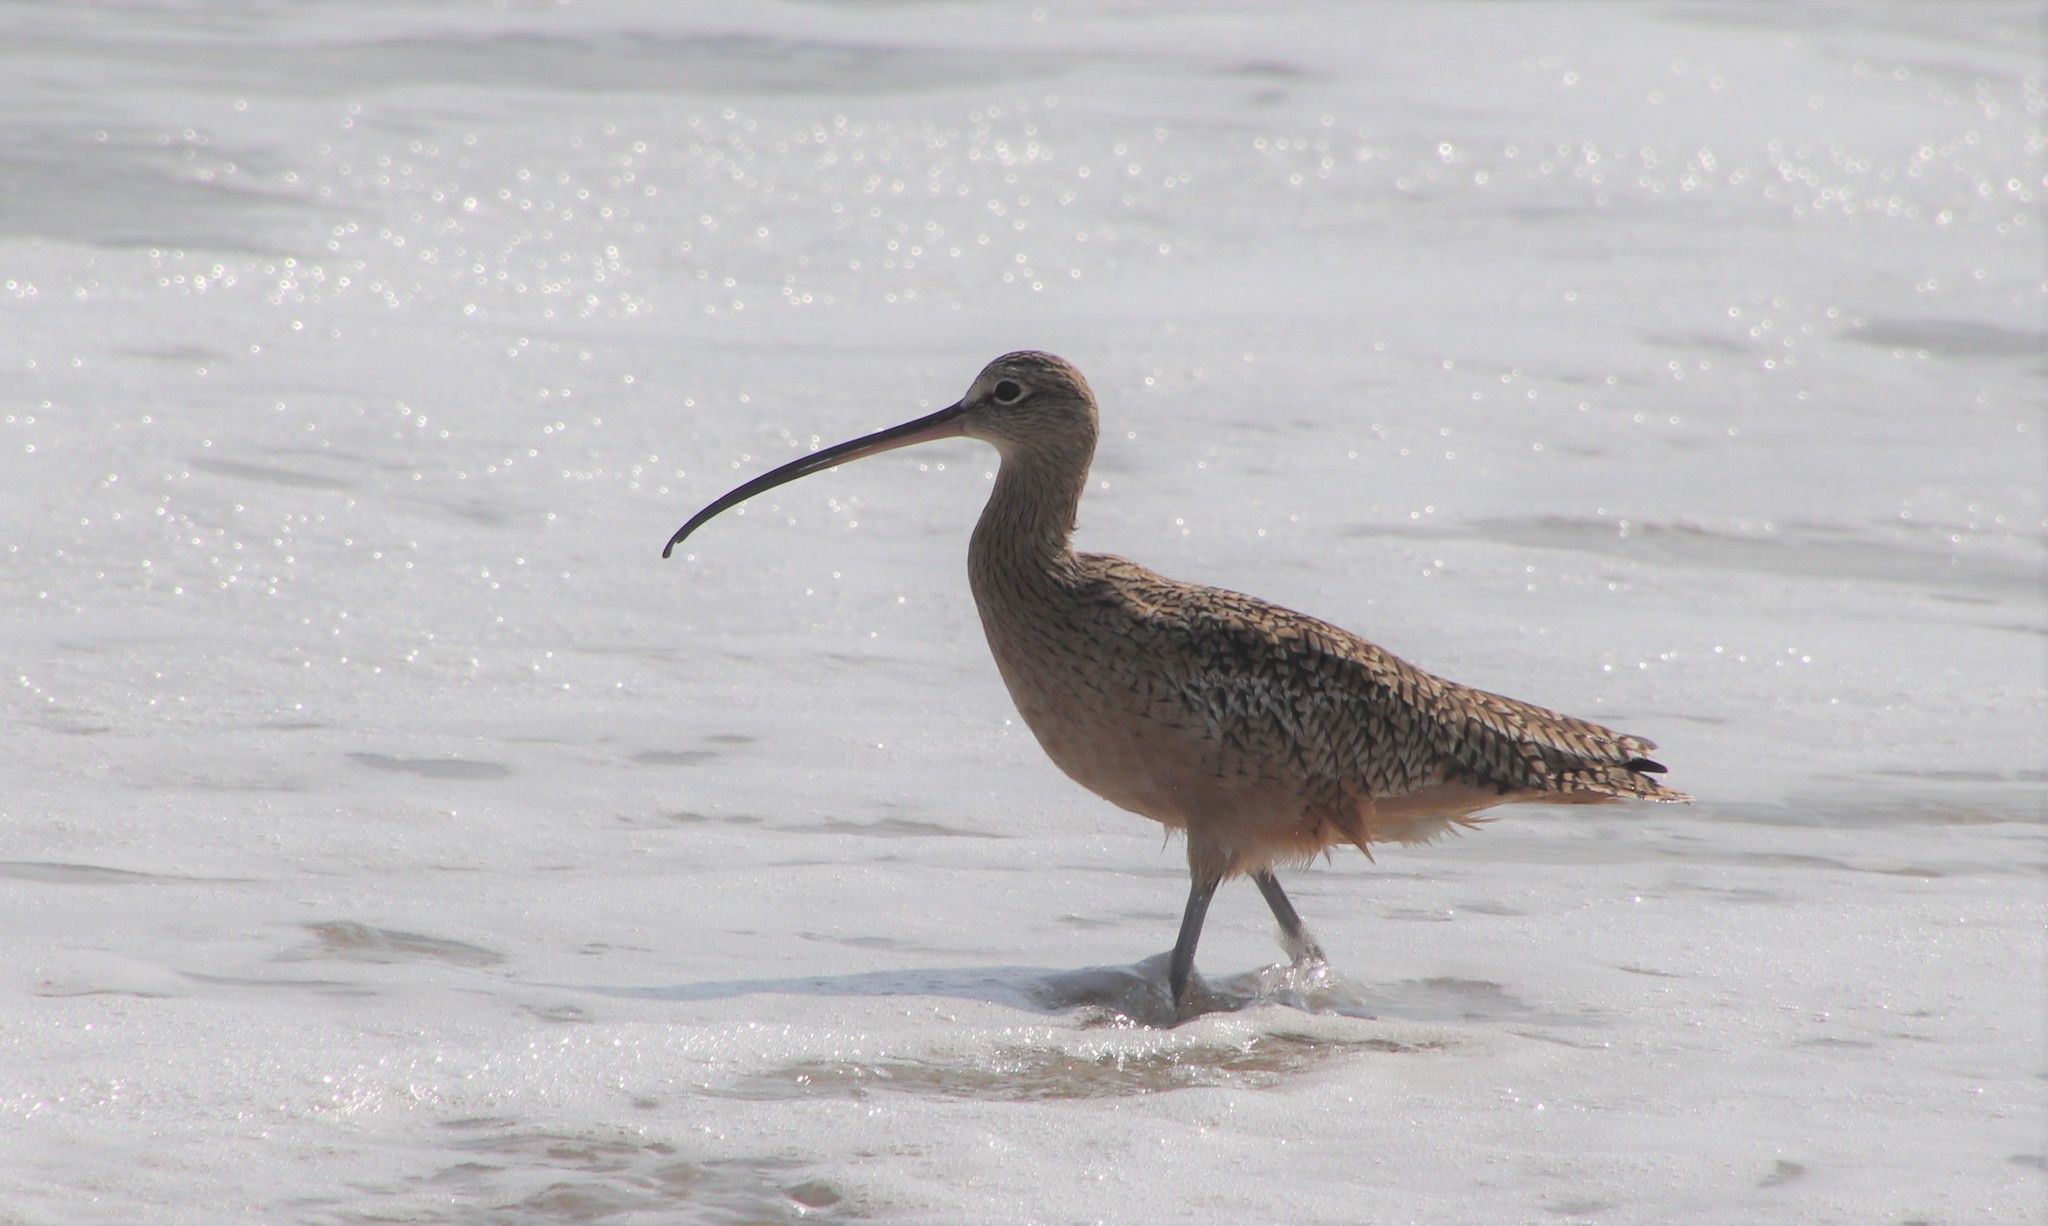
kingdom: Animalia
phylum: Chordata
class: Aves
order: Charadriiformes
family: Scolopacidae
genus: Numenius
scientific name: Numenius americanus
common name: Long-billed curlew
